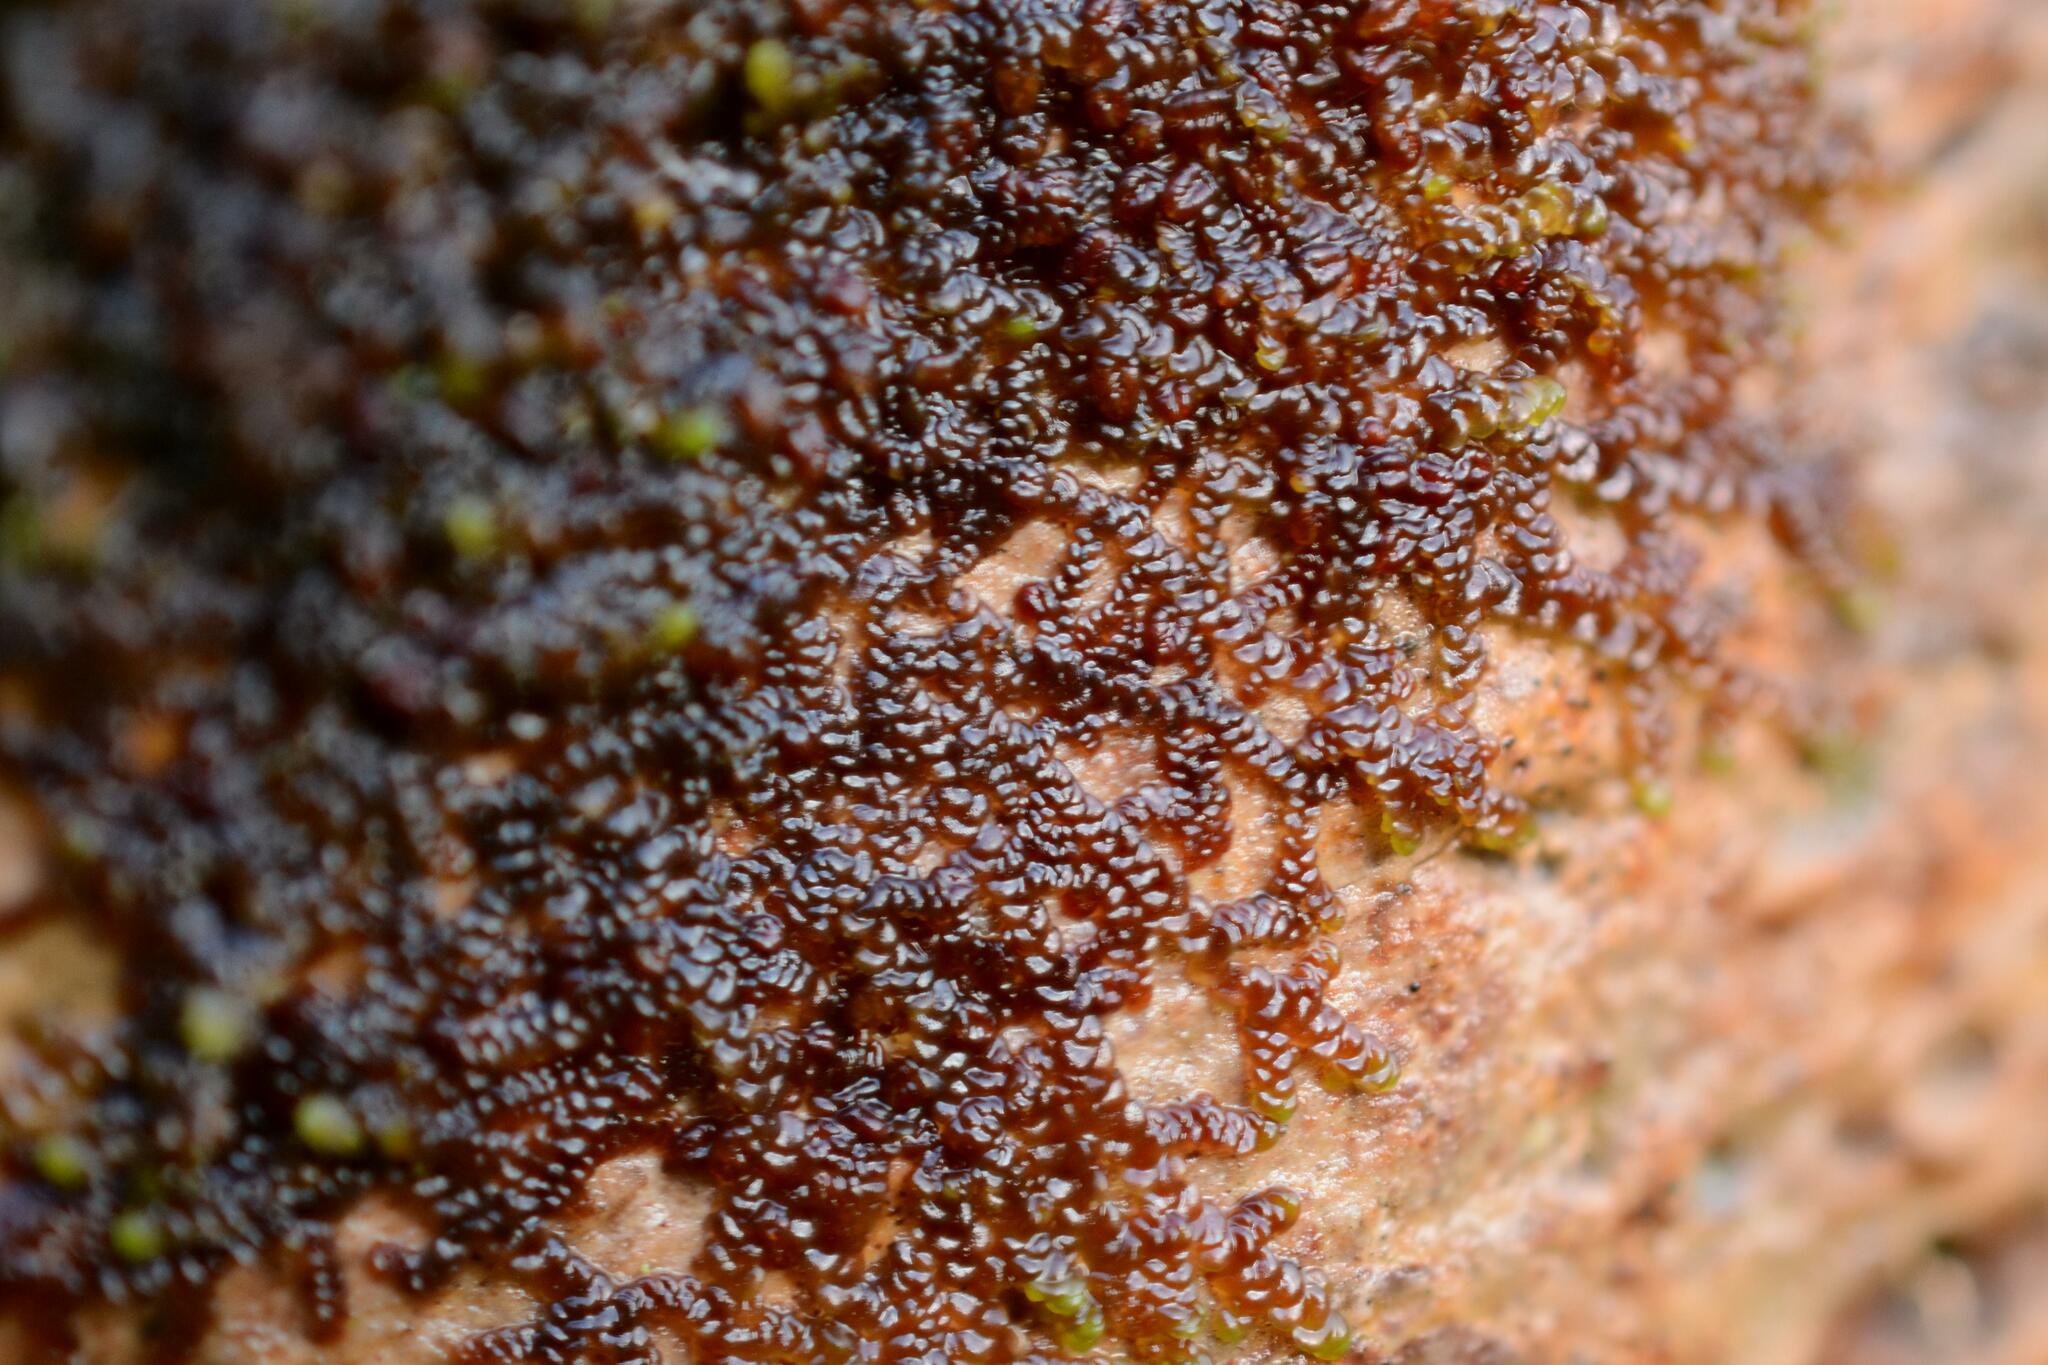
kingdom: Plantae
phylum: Marchantiophyta
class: Jungermanniopsida
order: Porellales
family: Frullaniaceae
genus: Frullania
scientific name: Frullania dilatata
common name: Dilated scalewort
